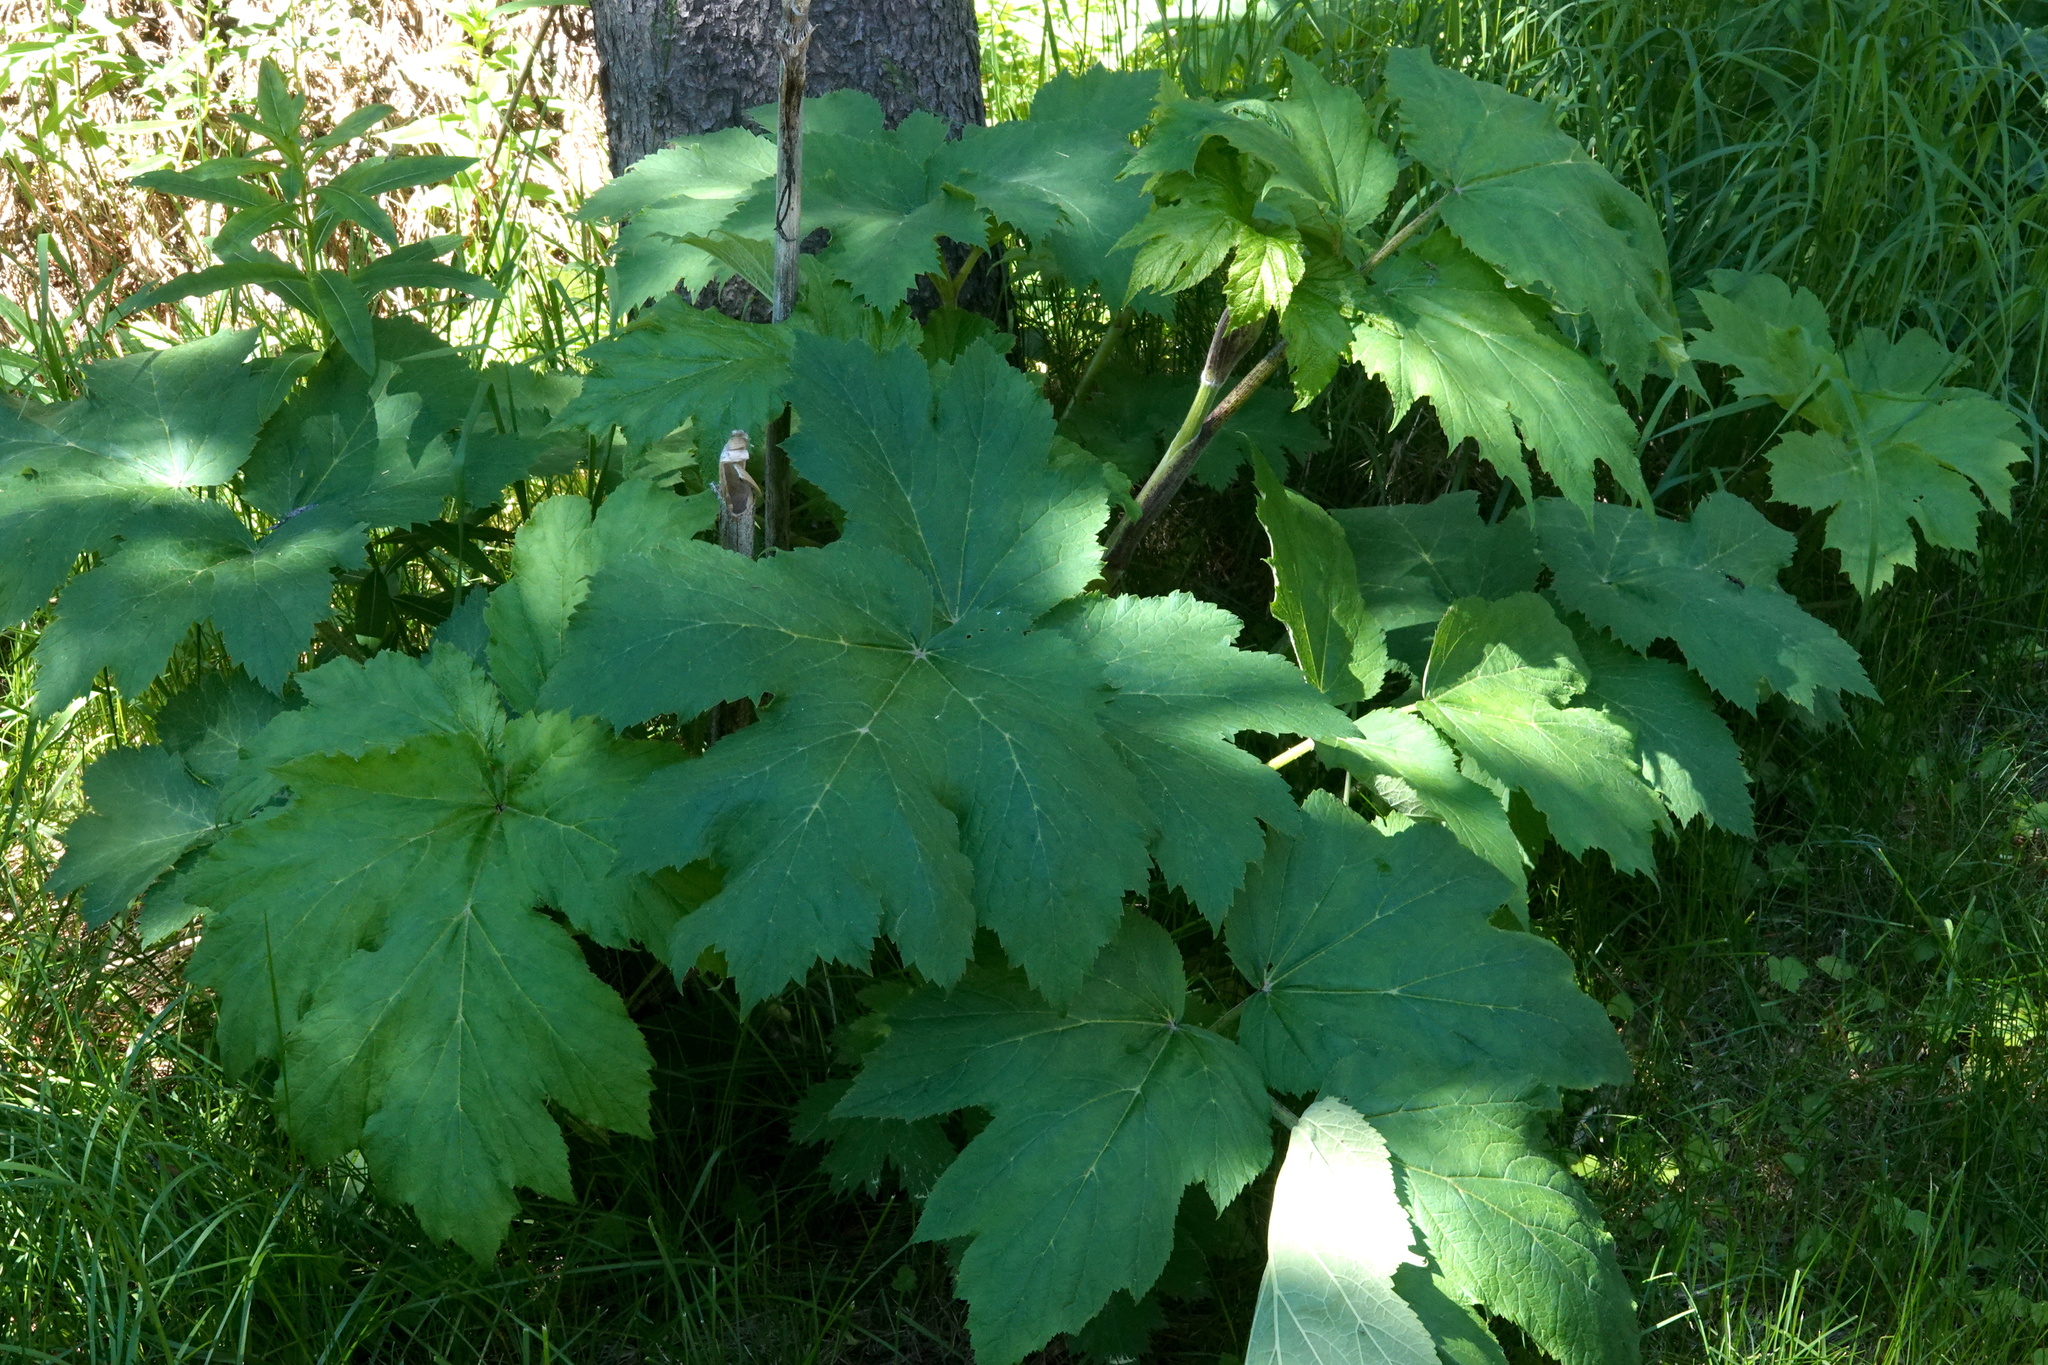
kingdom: Plantae
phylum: Tracheophyta
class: Magnoliopsida
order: Apiales
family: Apiaceae
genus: Heracleum
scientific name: Heracleum maximum
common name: American cow parsnip
